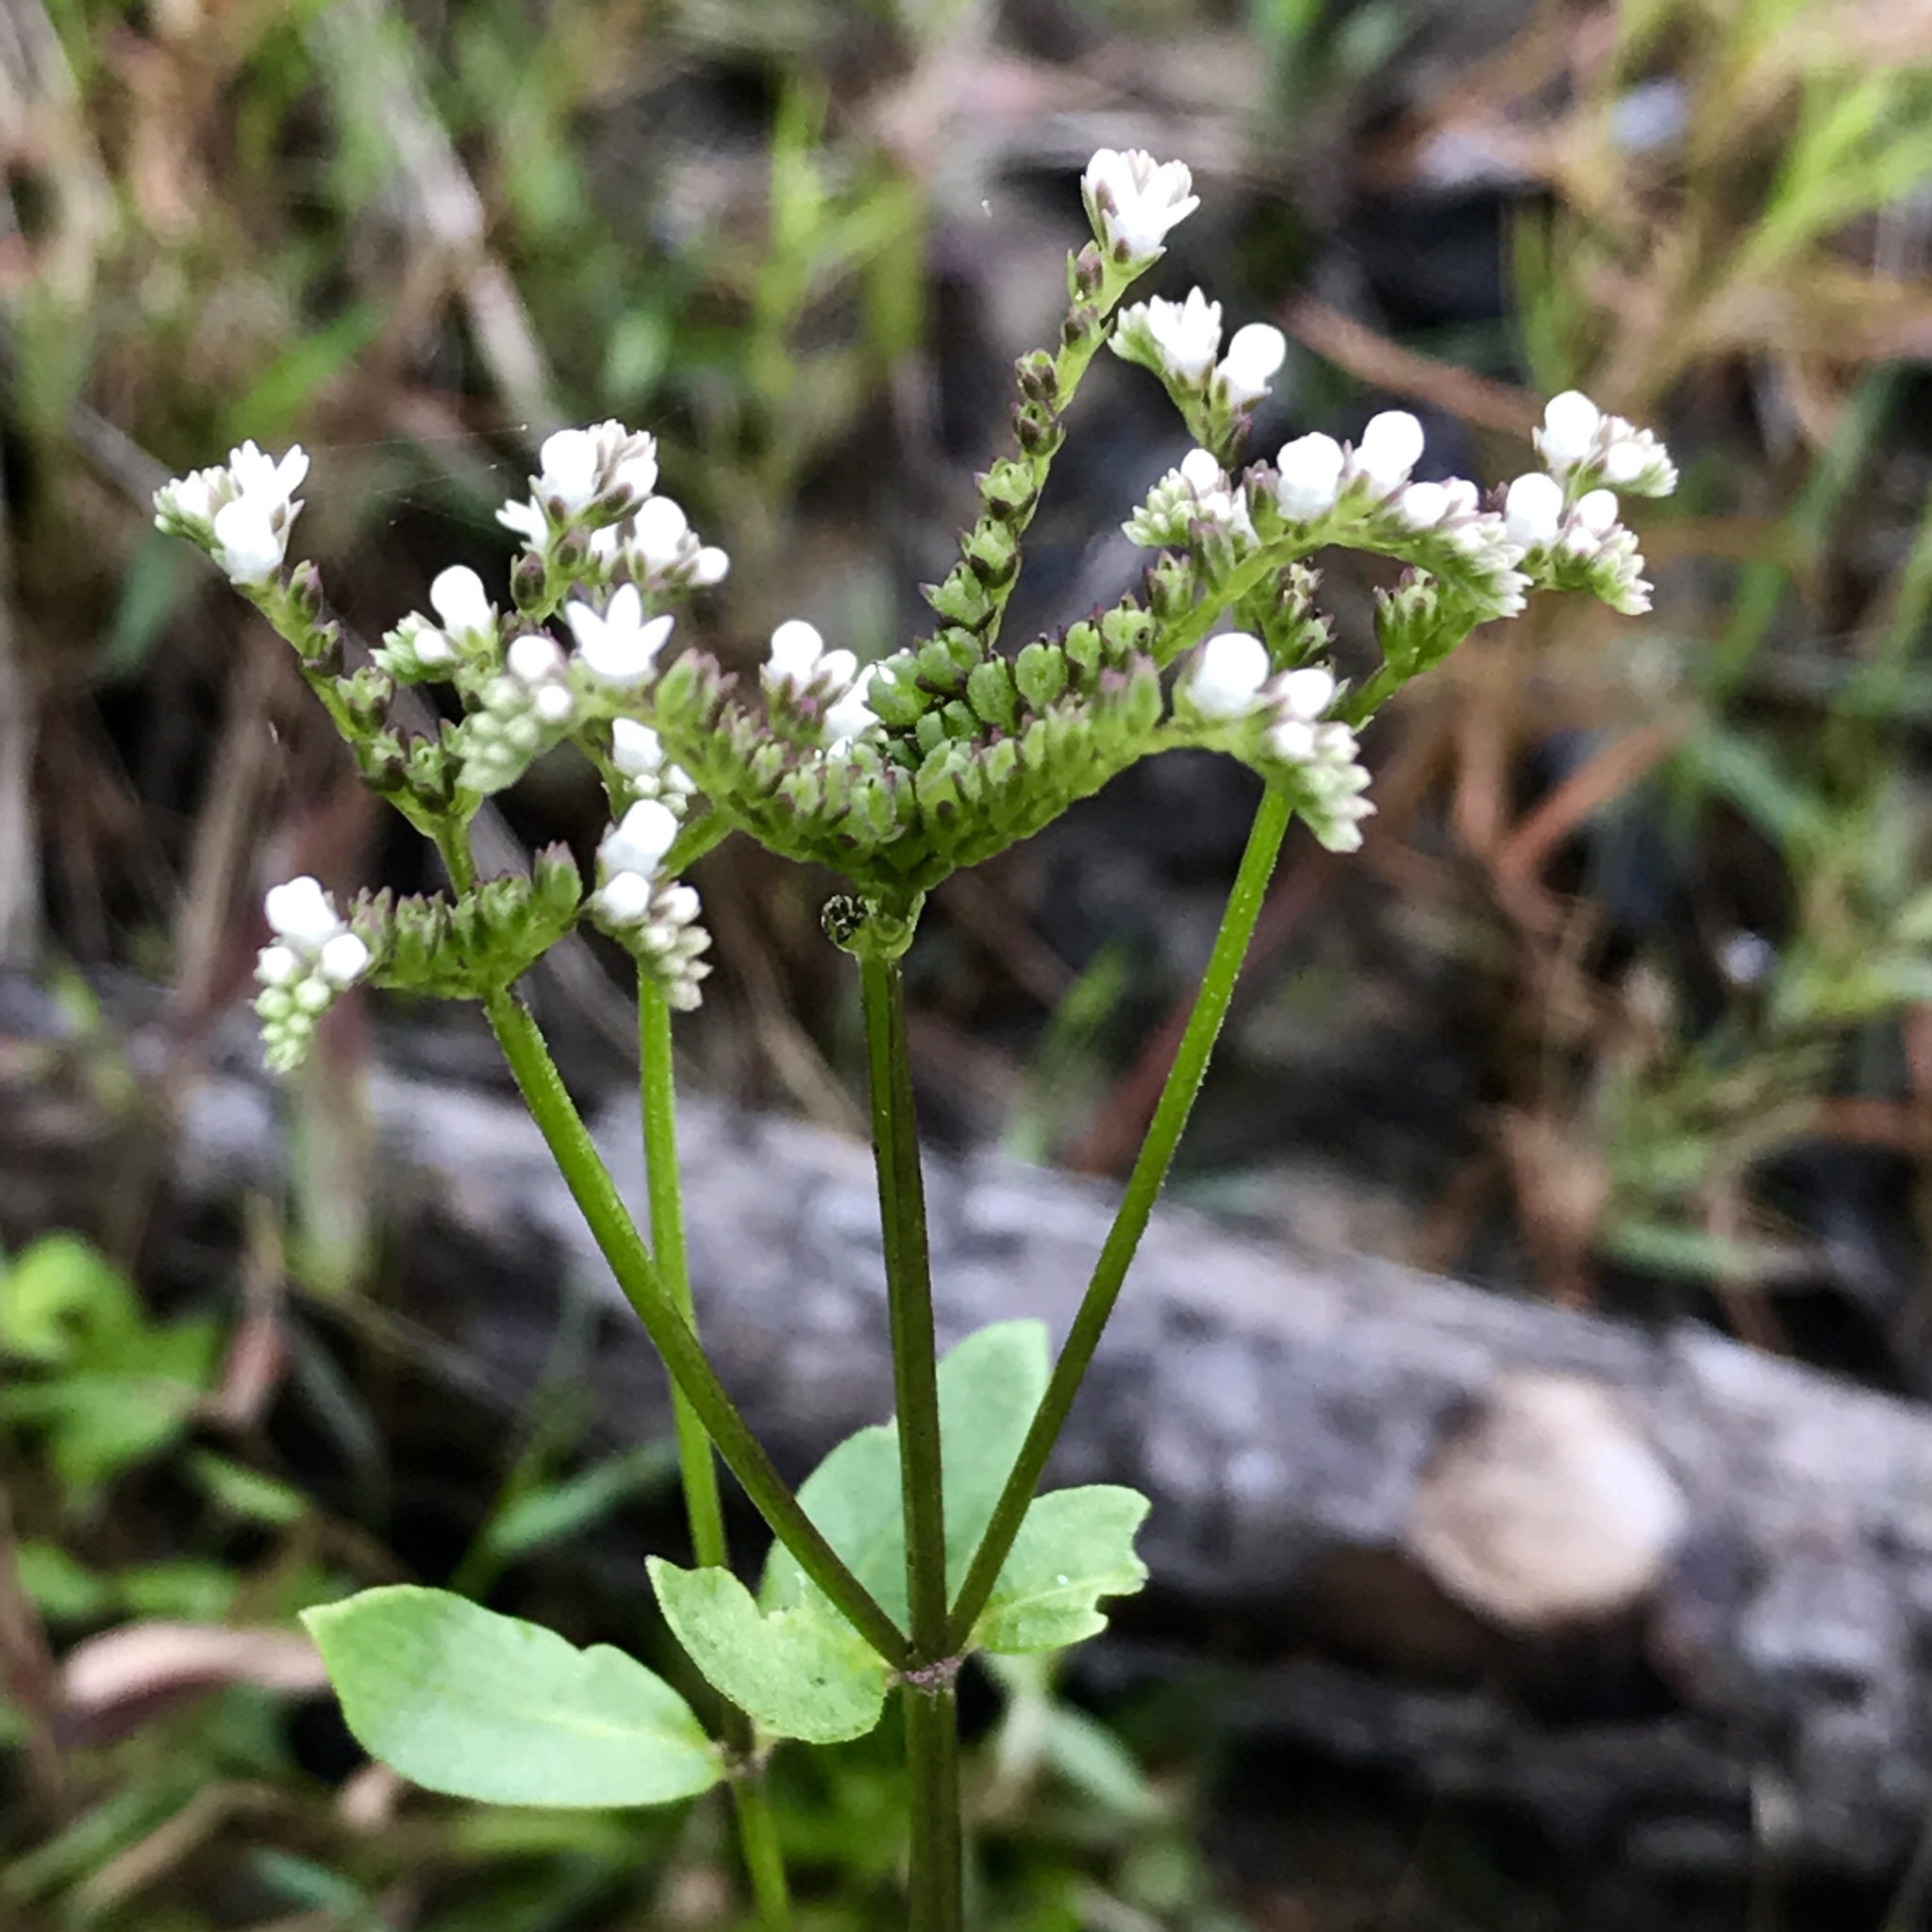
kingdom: Plantae
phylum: Tracheophyta
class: Magnoliopsida
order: Gentianales
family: Loganiaceae
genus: Mitreola
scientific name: Mitreola sessilifolia
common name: Swamp hornpod
